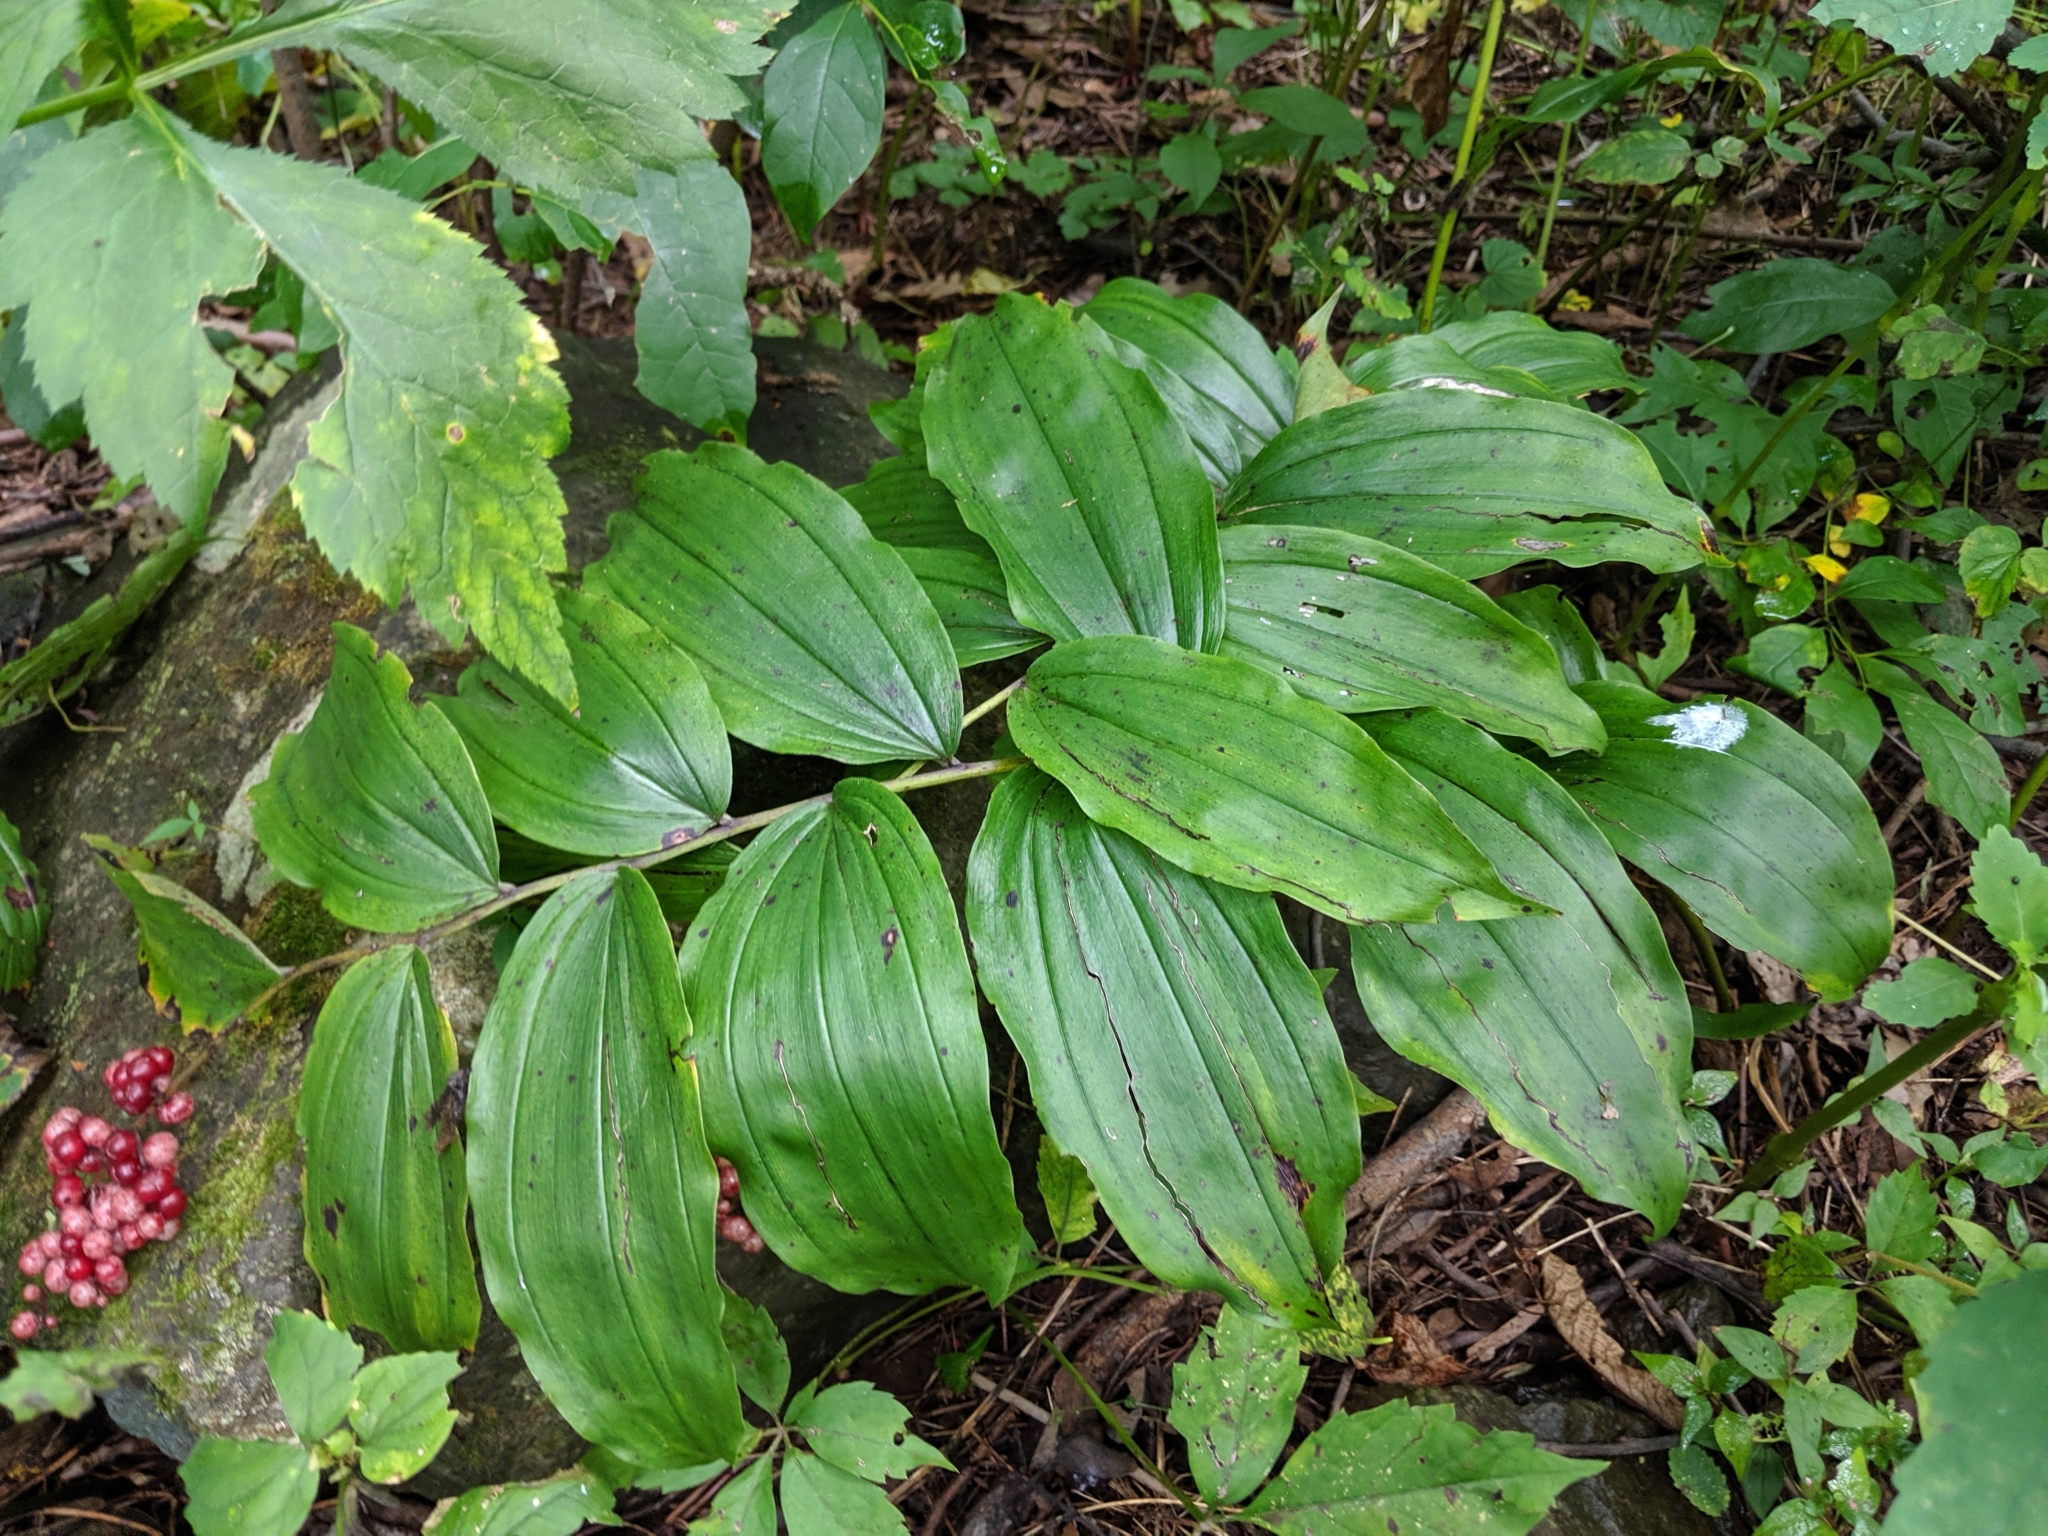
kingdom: Plantae
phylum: Tracheophyta
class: Liliopsida
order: Asparagales
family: Asparagaceae
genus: Maianthemum
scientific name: Maianthemum racemosum
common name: False spikenard
